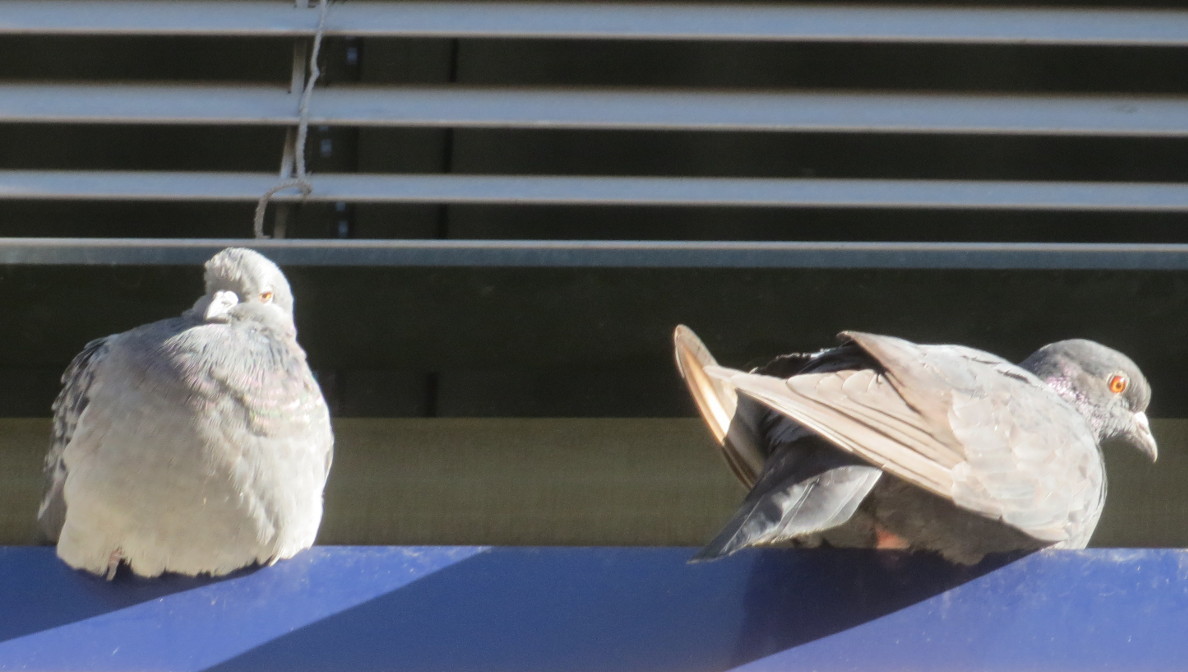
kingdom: Animalia
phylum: Chordata
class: Aves
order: Columbiformes
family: Columbidae
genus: Columba
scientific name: Columba livia
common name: Rock pigeon
